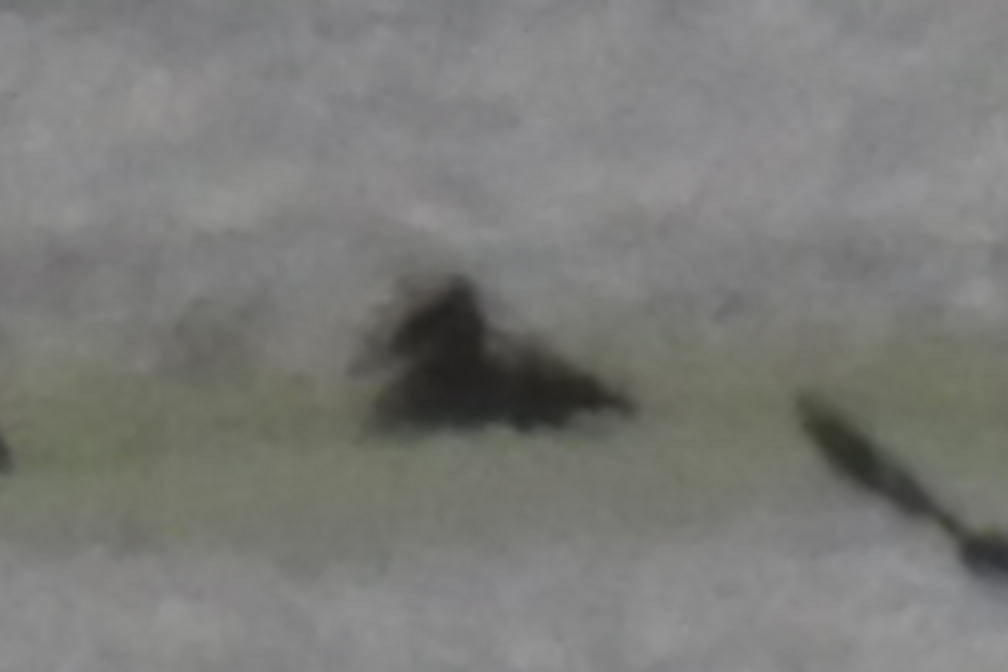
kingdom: Animalia
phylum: Chordata
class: Aves
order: Anseriformes
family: Anatidae
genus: Lophodytes
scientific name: Lophodytes cucullatus
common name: Hooded merganser
